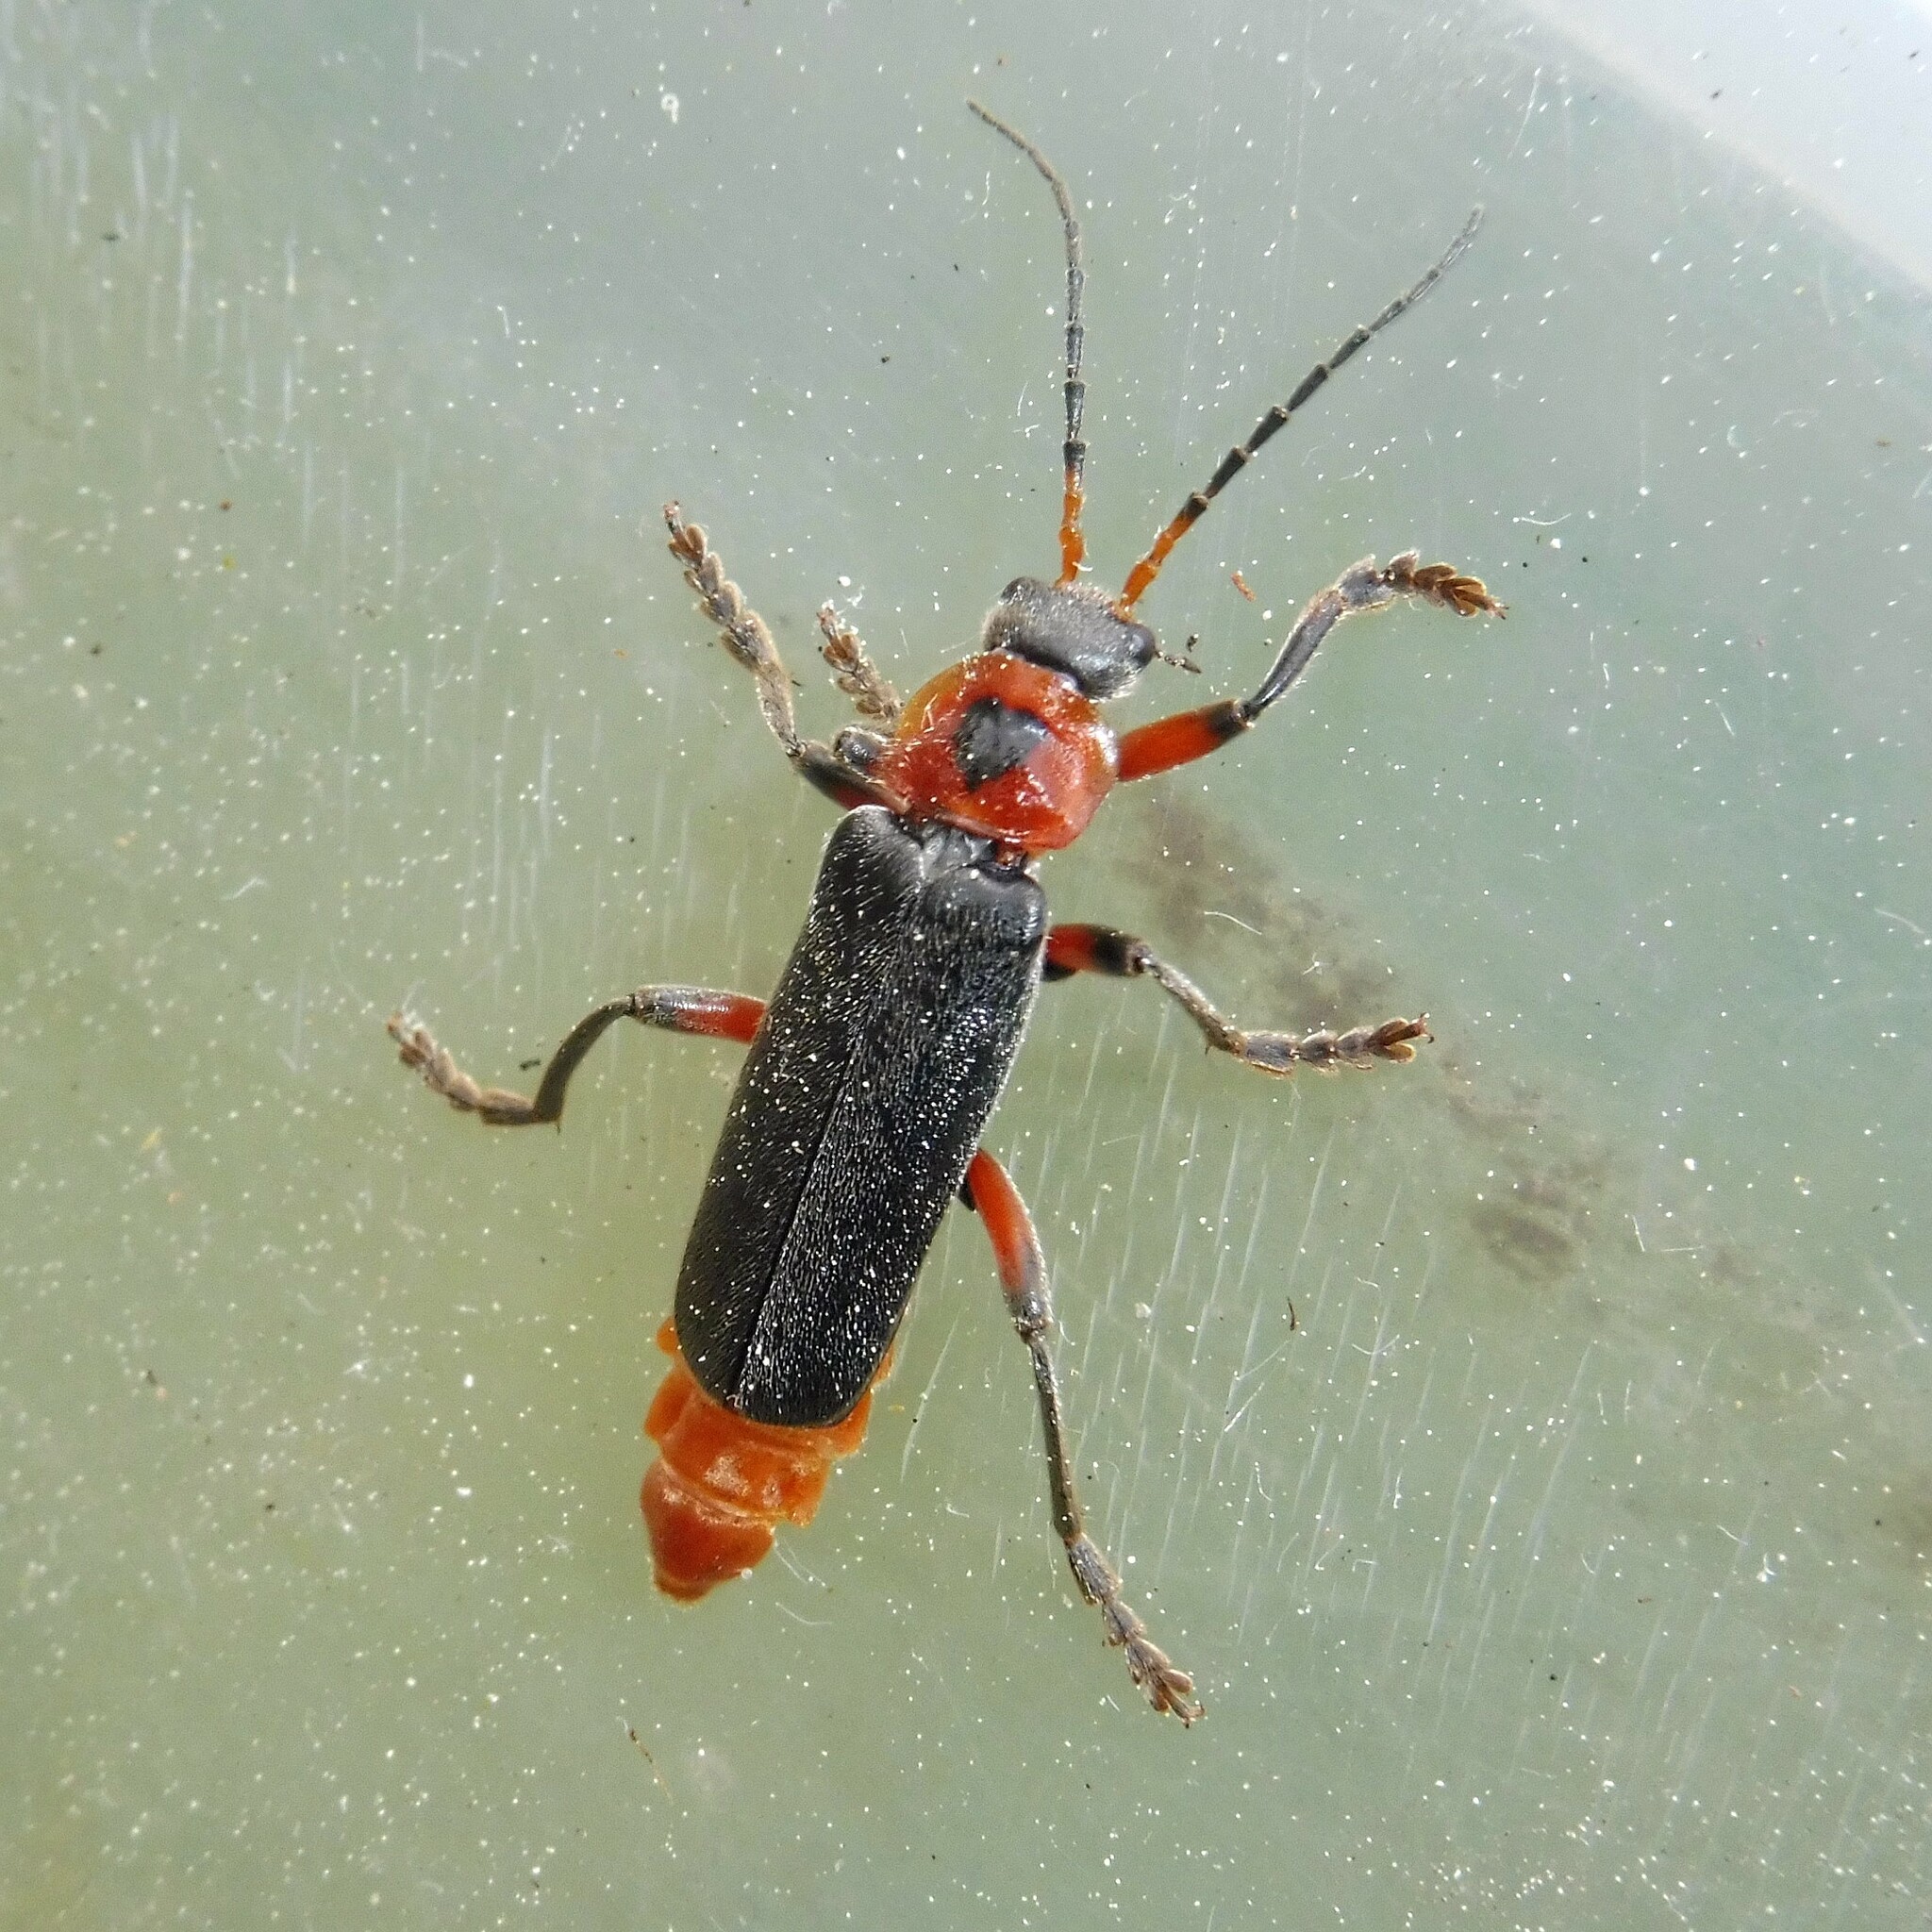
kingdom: Animalia
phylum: Arthropoda
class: Insecta
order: Coleoptera
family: Cantharidae
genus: Cantharis
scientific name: Cantharis rustica
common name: Soldier beetle
